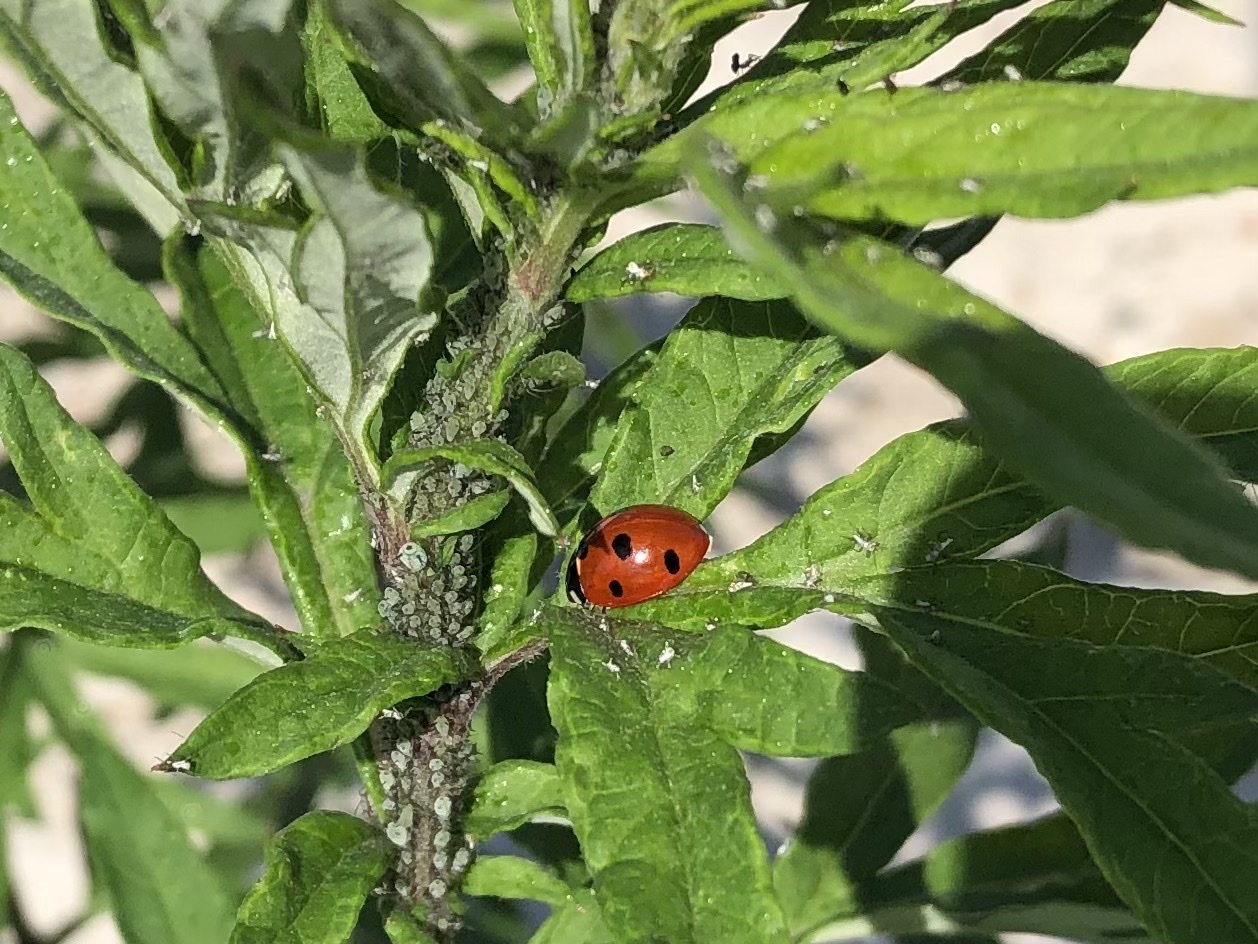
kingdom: Animalia
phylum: Arthropoda
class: Insecta
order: Coleoptera
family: Coccinellidae
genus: Coccinella
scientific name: Coccinella septempunctata
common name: Sevenspotted lady beetle
